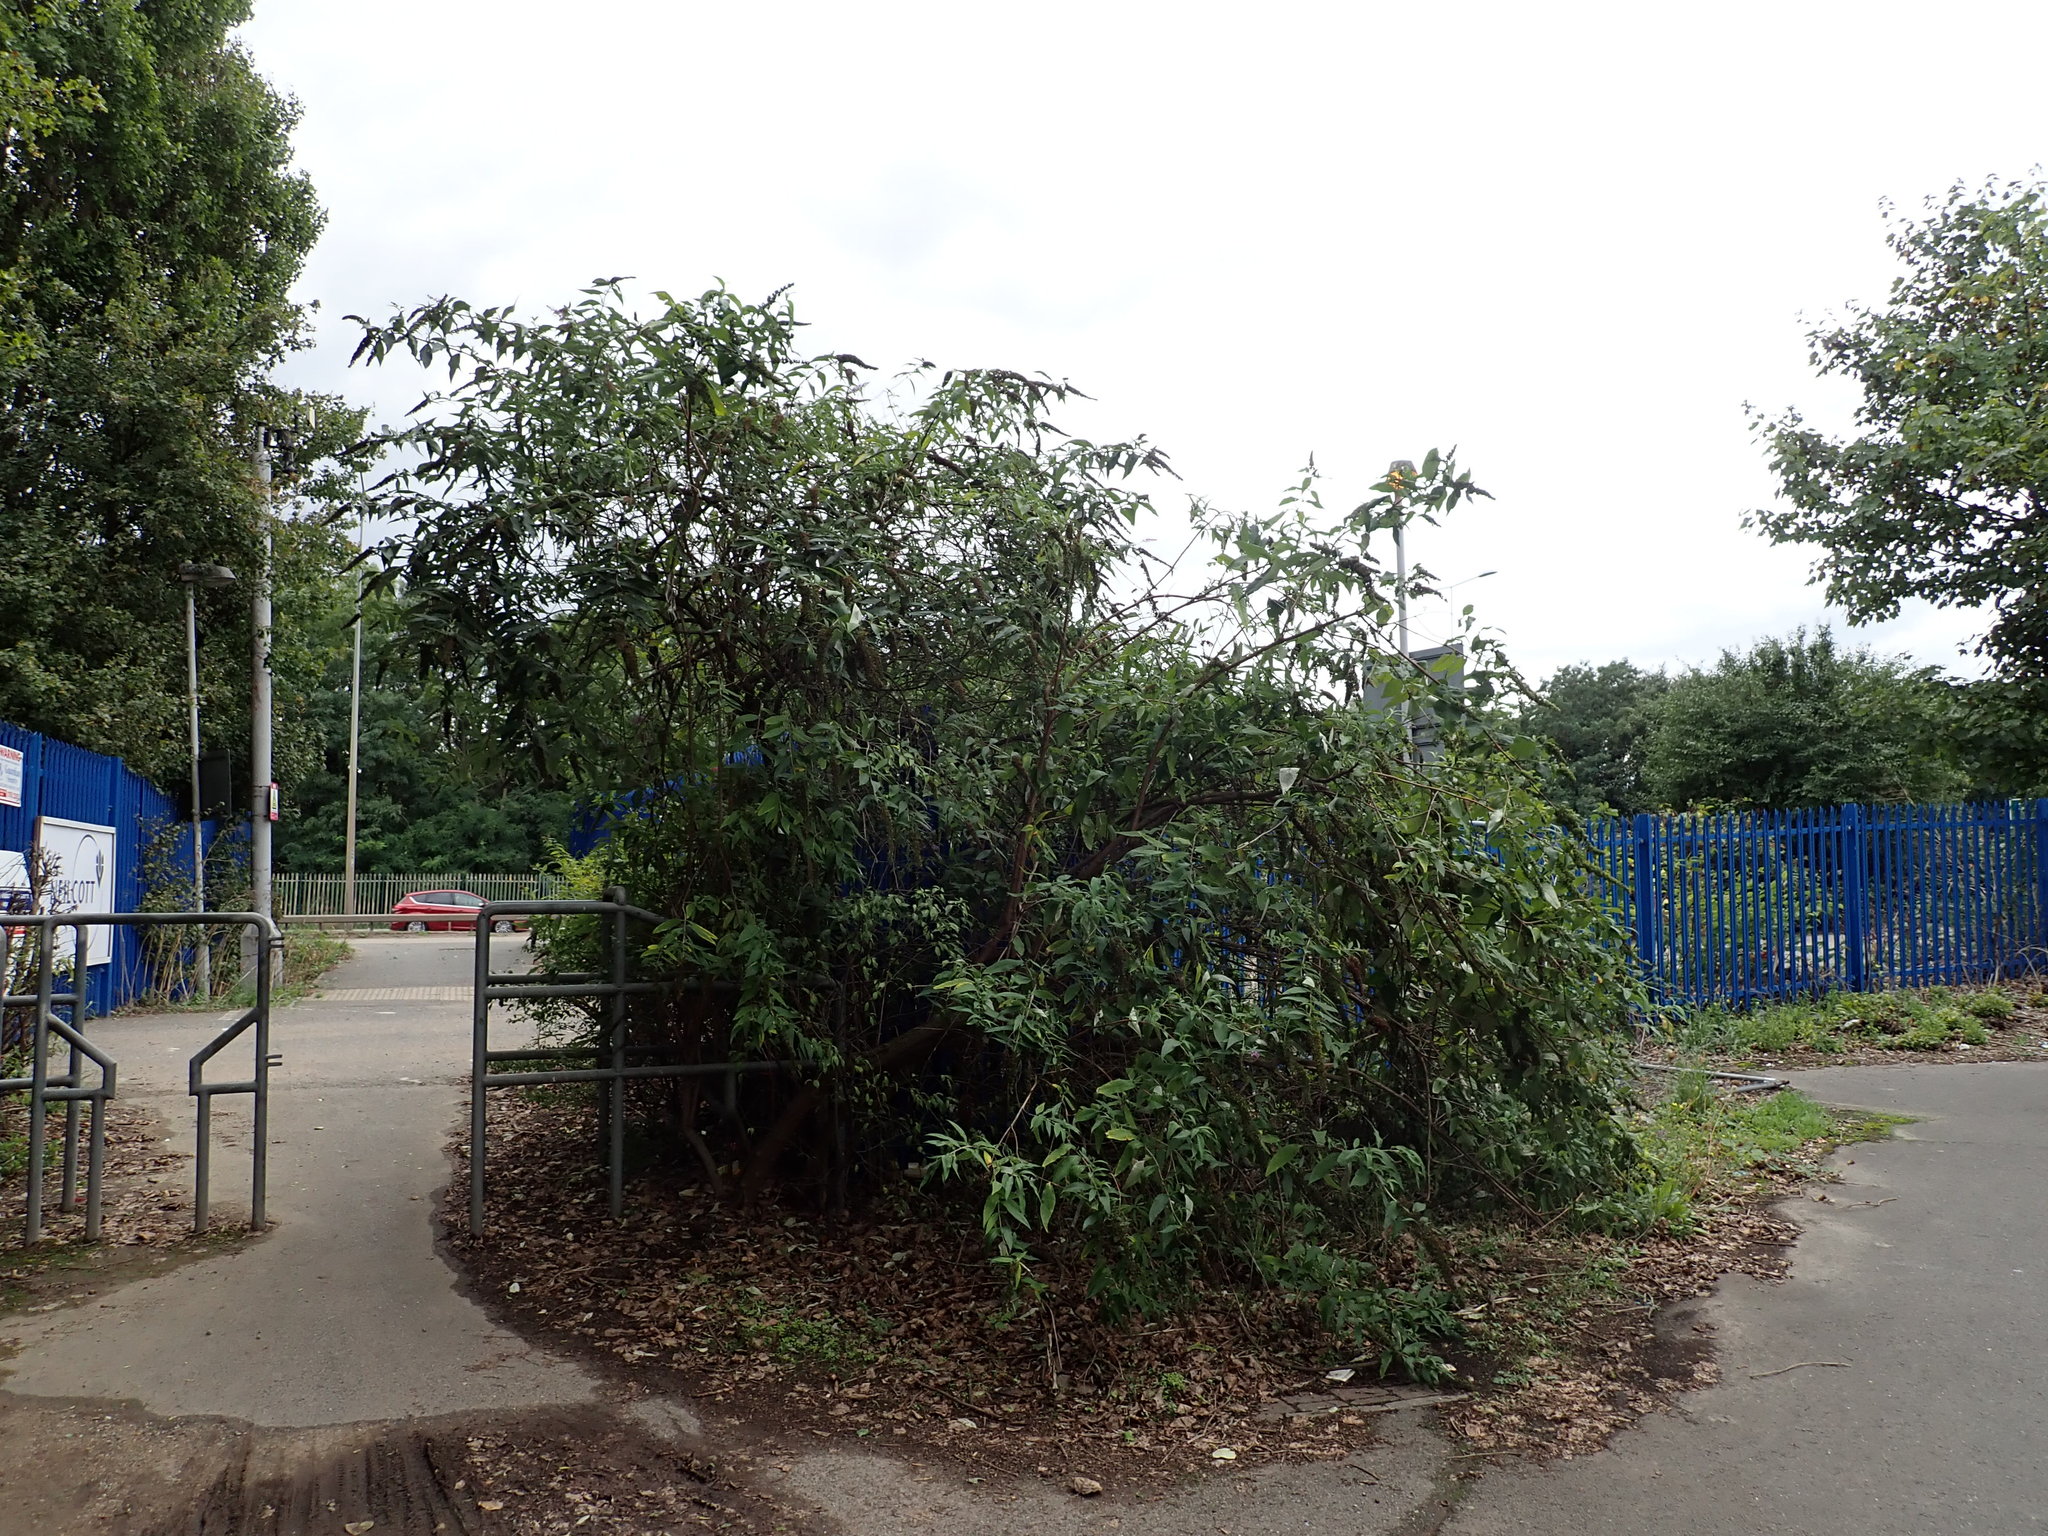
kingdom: Plantae
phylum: Tracheophyta
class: Magnoliopsida
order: Lamiales
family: Scrophulariaceae
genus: Buddleja
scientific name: Buddleja davidii
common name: Butterfly-bush
